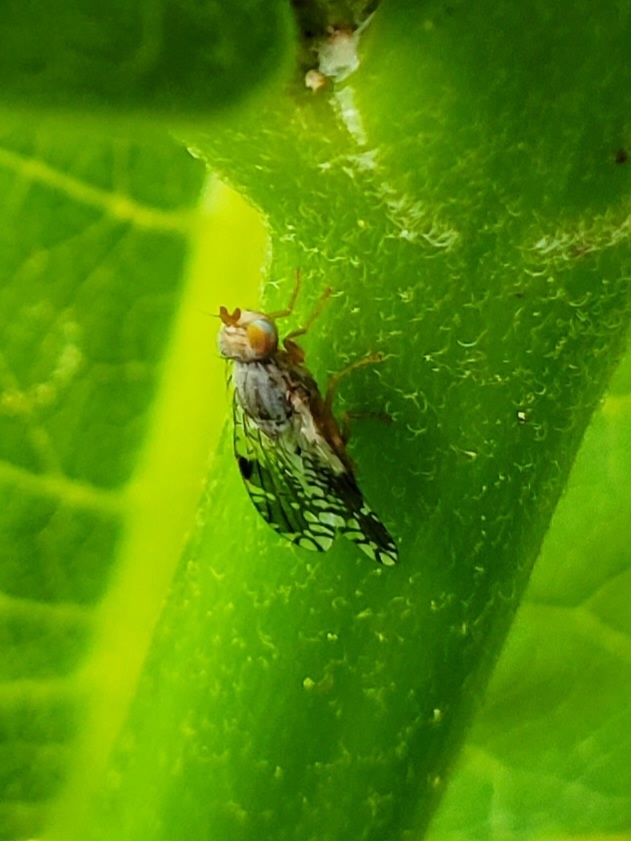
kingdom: Animalia
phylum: Arthropoda
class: Insecta
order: Diptera
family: Tephritidae
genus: Tephritis
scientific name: Tephritis pura
